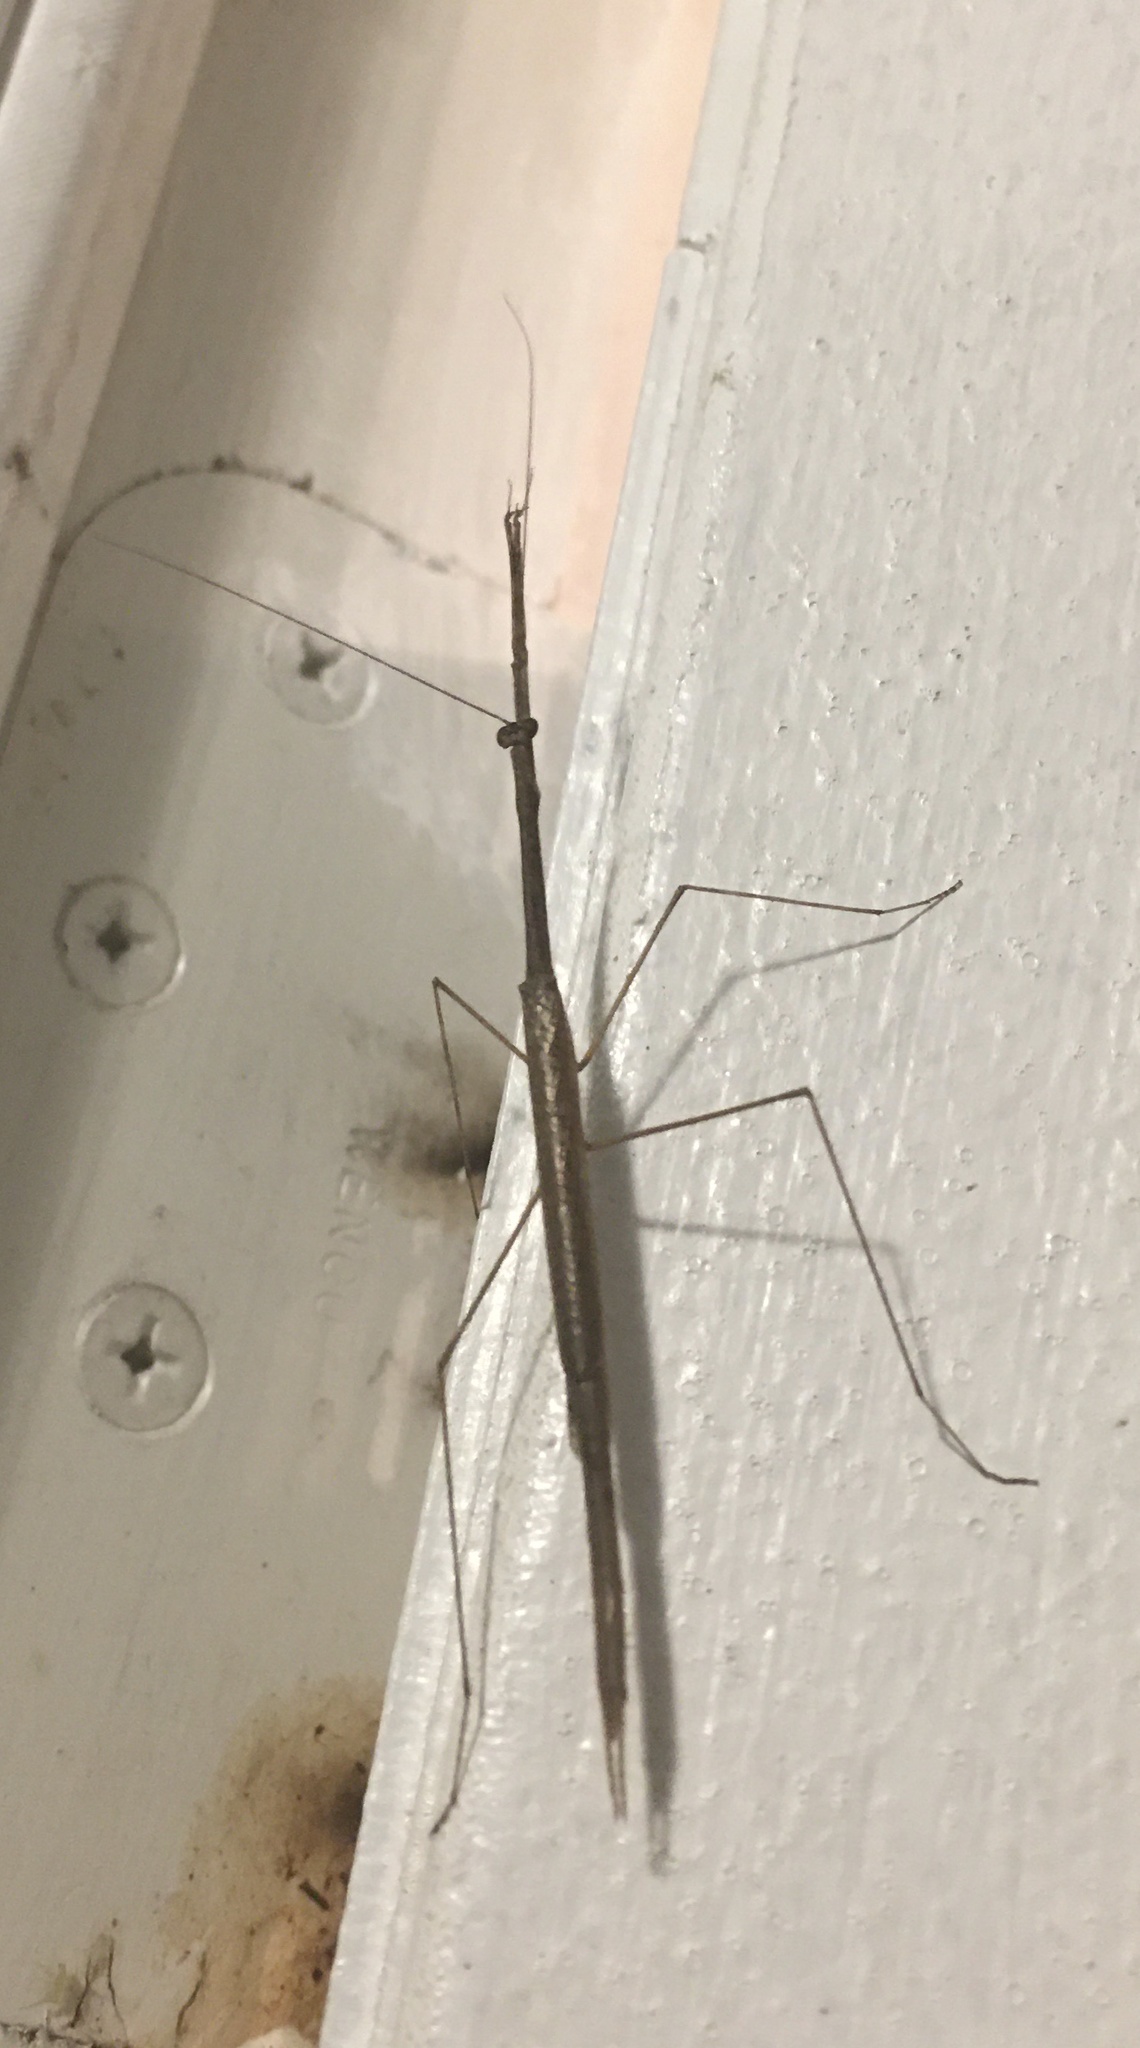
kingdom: Animalia
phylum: Arthropoda
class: Insecta
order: Mantodea
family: Thespidae
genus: Thesprotia
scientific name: Thesprotia graminis
